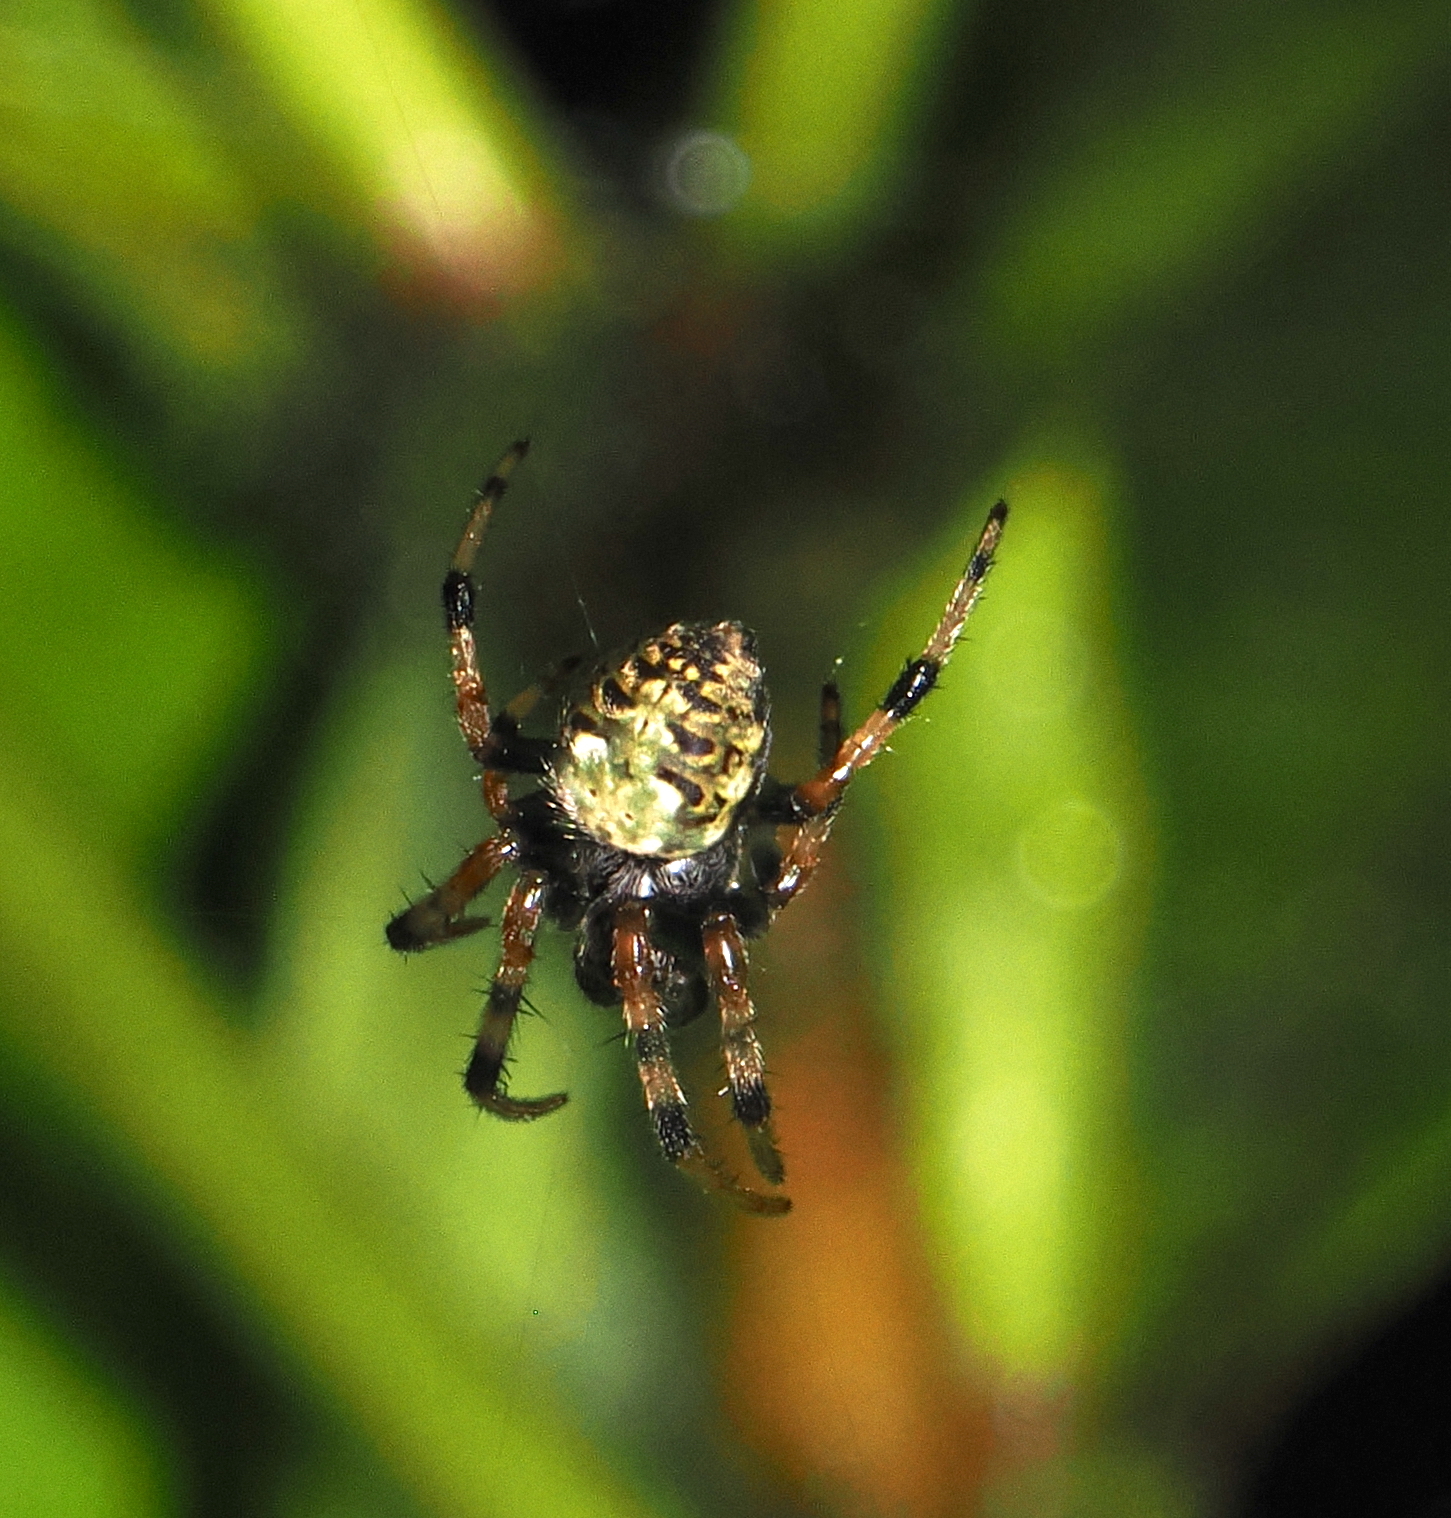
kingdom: Animalia
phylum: Arthropoda
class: Arachnida
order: Araneae
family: Araneidae
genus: Araneus
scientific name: Araneus granadensis
